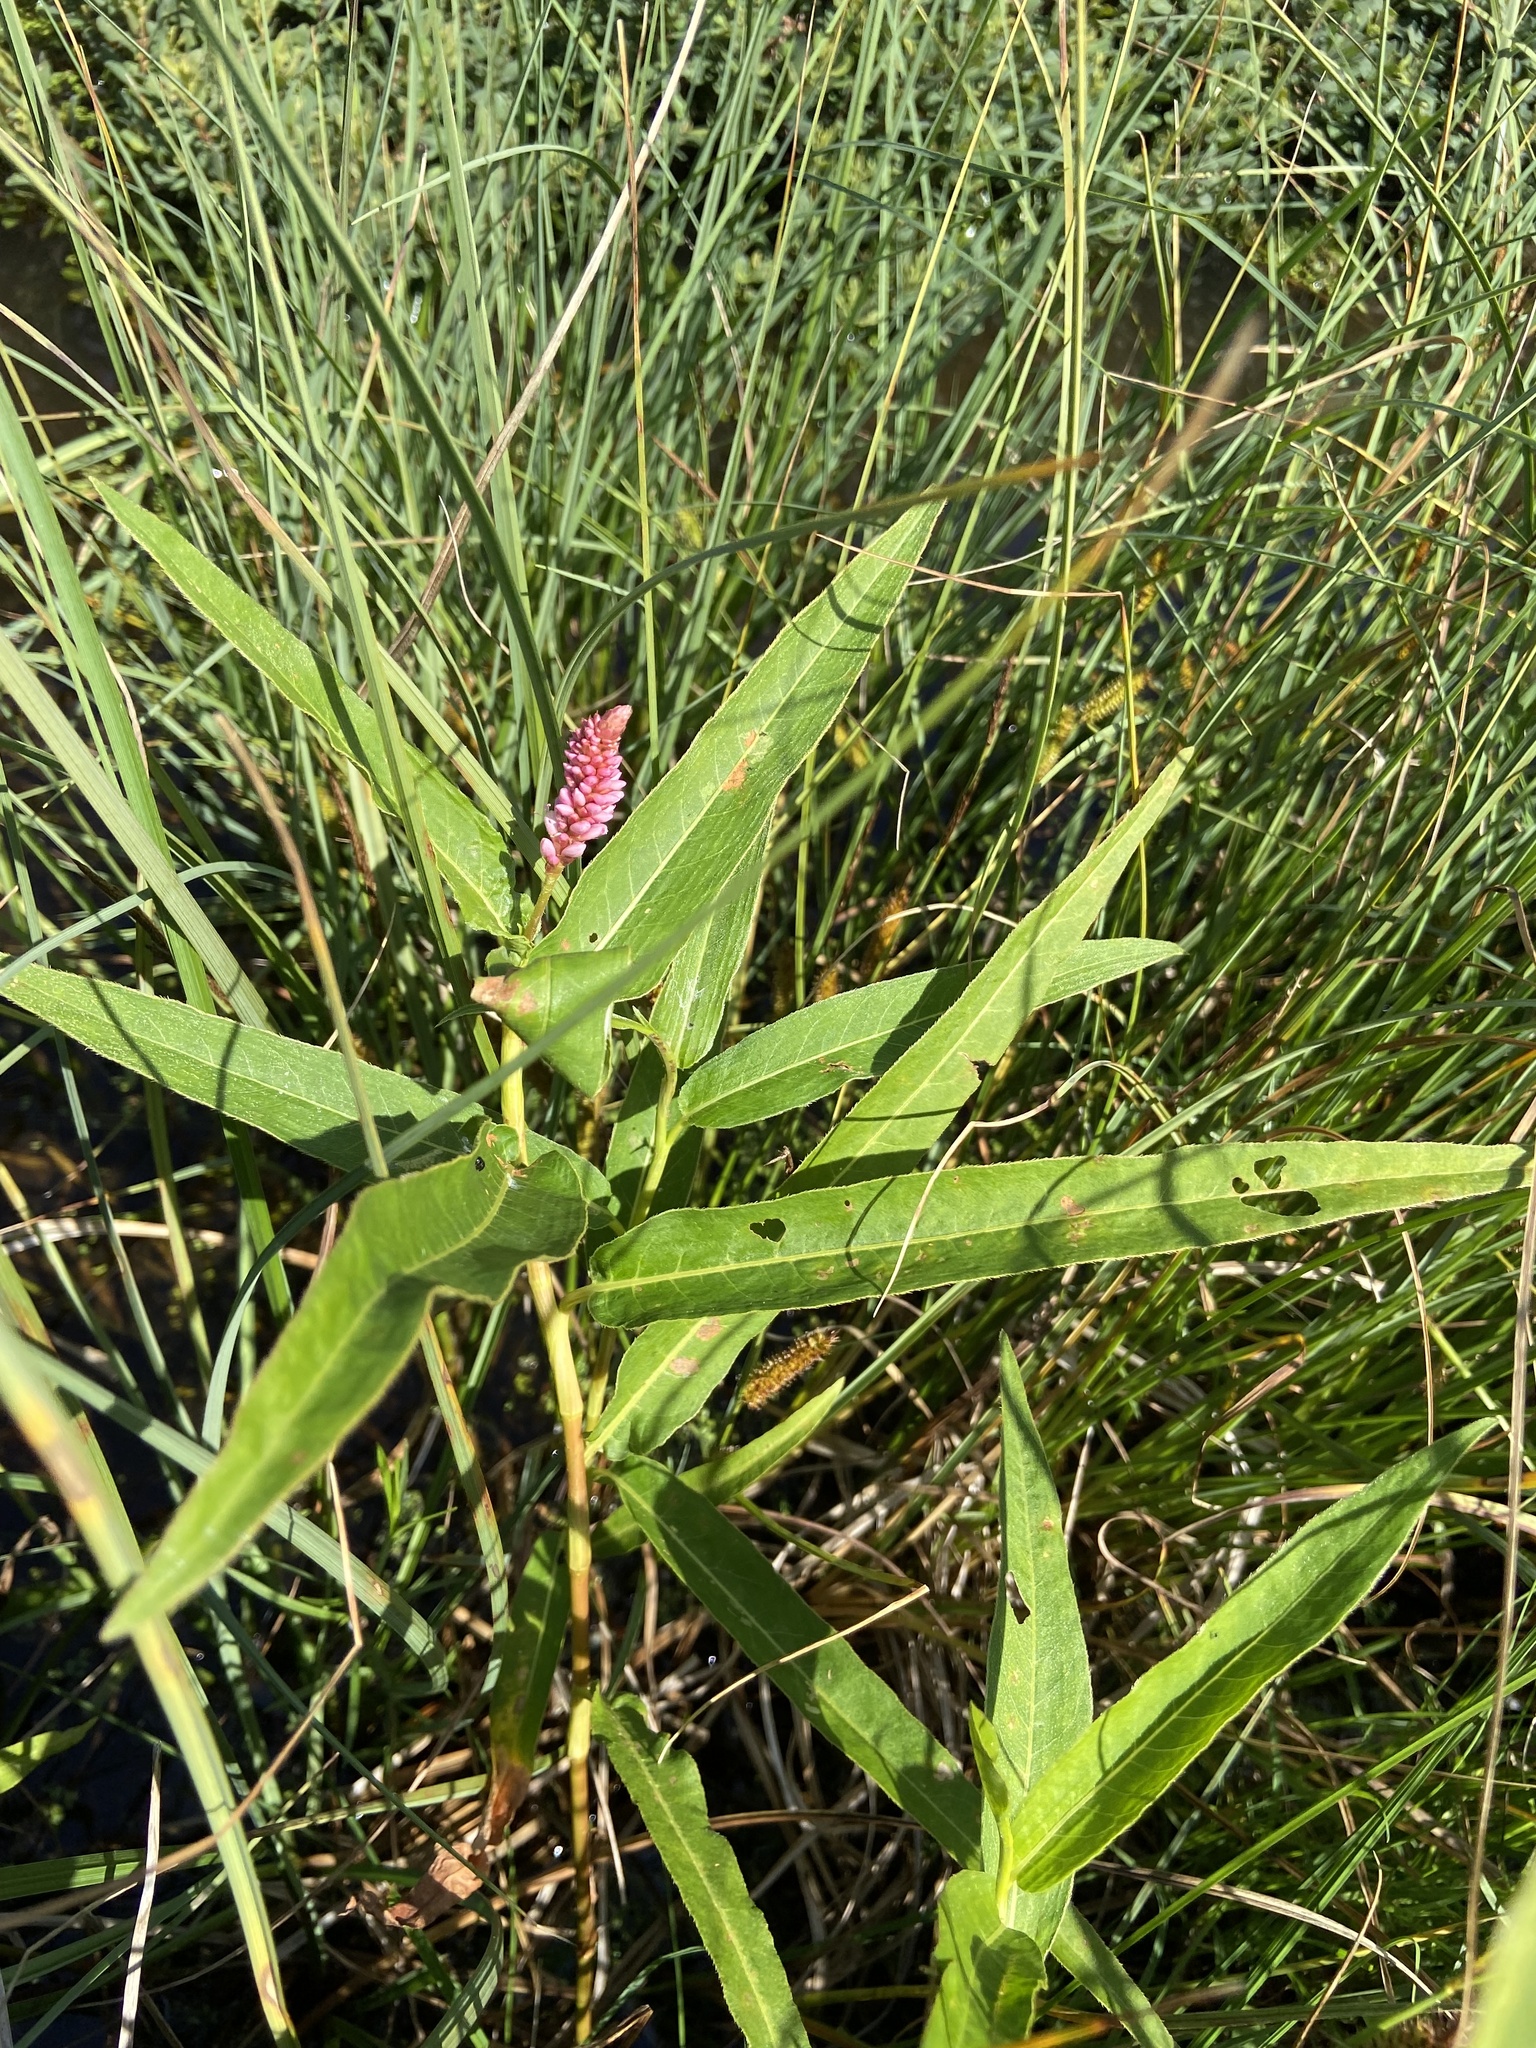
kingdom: Plantae
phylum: Tracheophyta
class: Magnoliopsida
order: Caryophyllales
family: Polygonaceae
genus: Persicaria
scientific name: Persicaria amphibia
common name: Amphibious bistort
